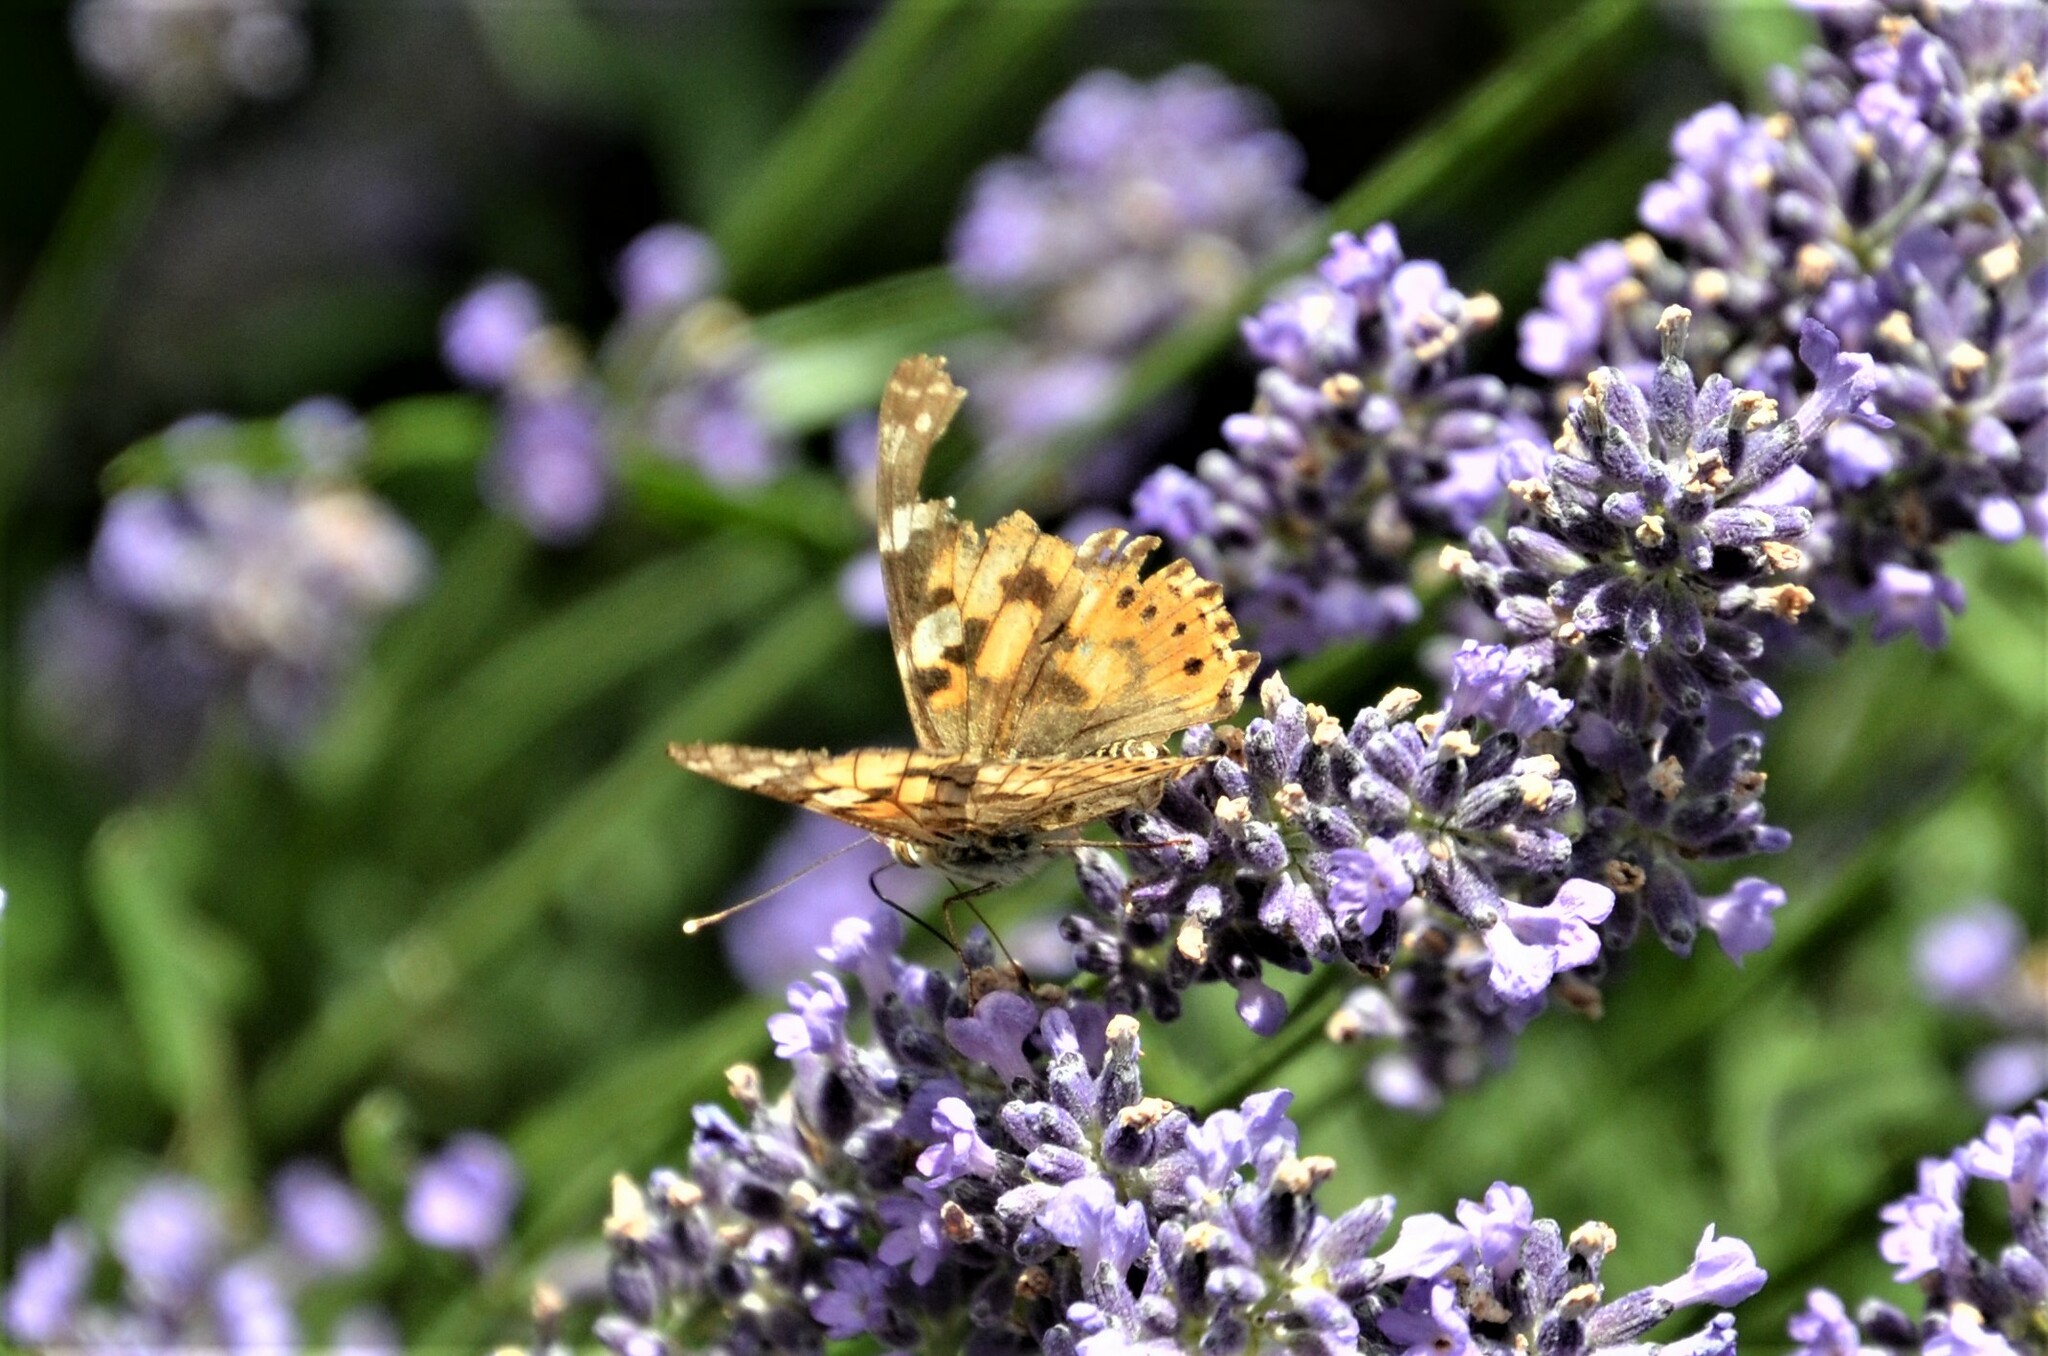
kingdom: Animalia
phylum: Arthropoda
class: Insecta
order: Lepidoptera
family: Nymphalidae
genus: Vanessa
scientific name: Vanessa cardui
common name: Painted lady
